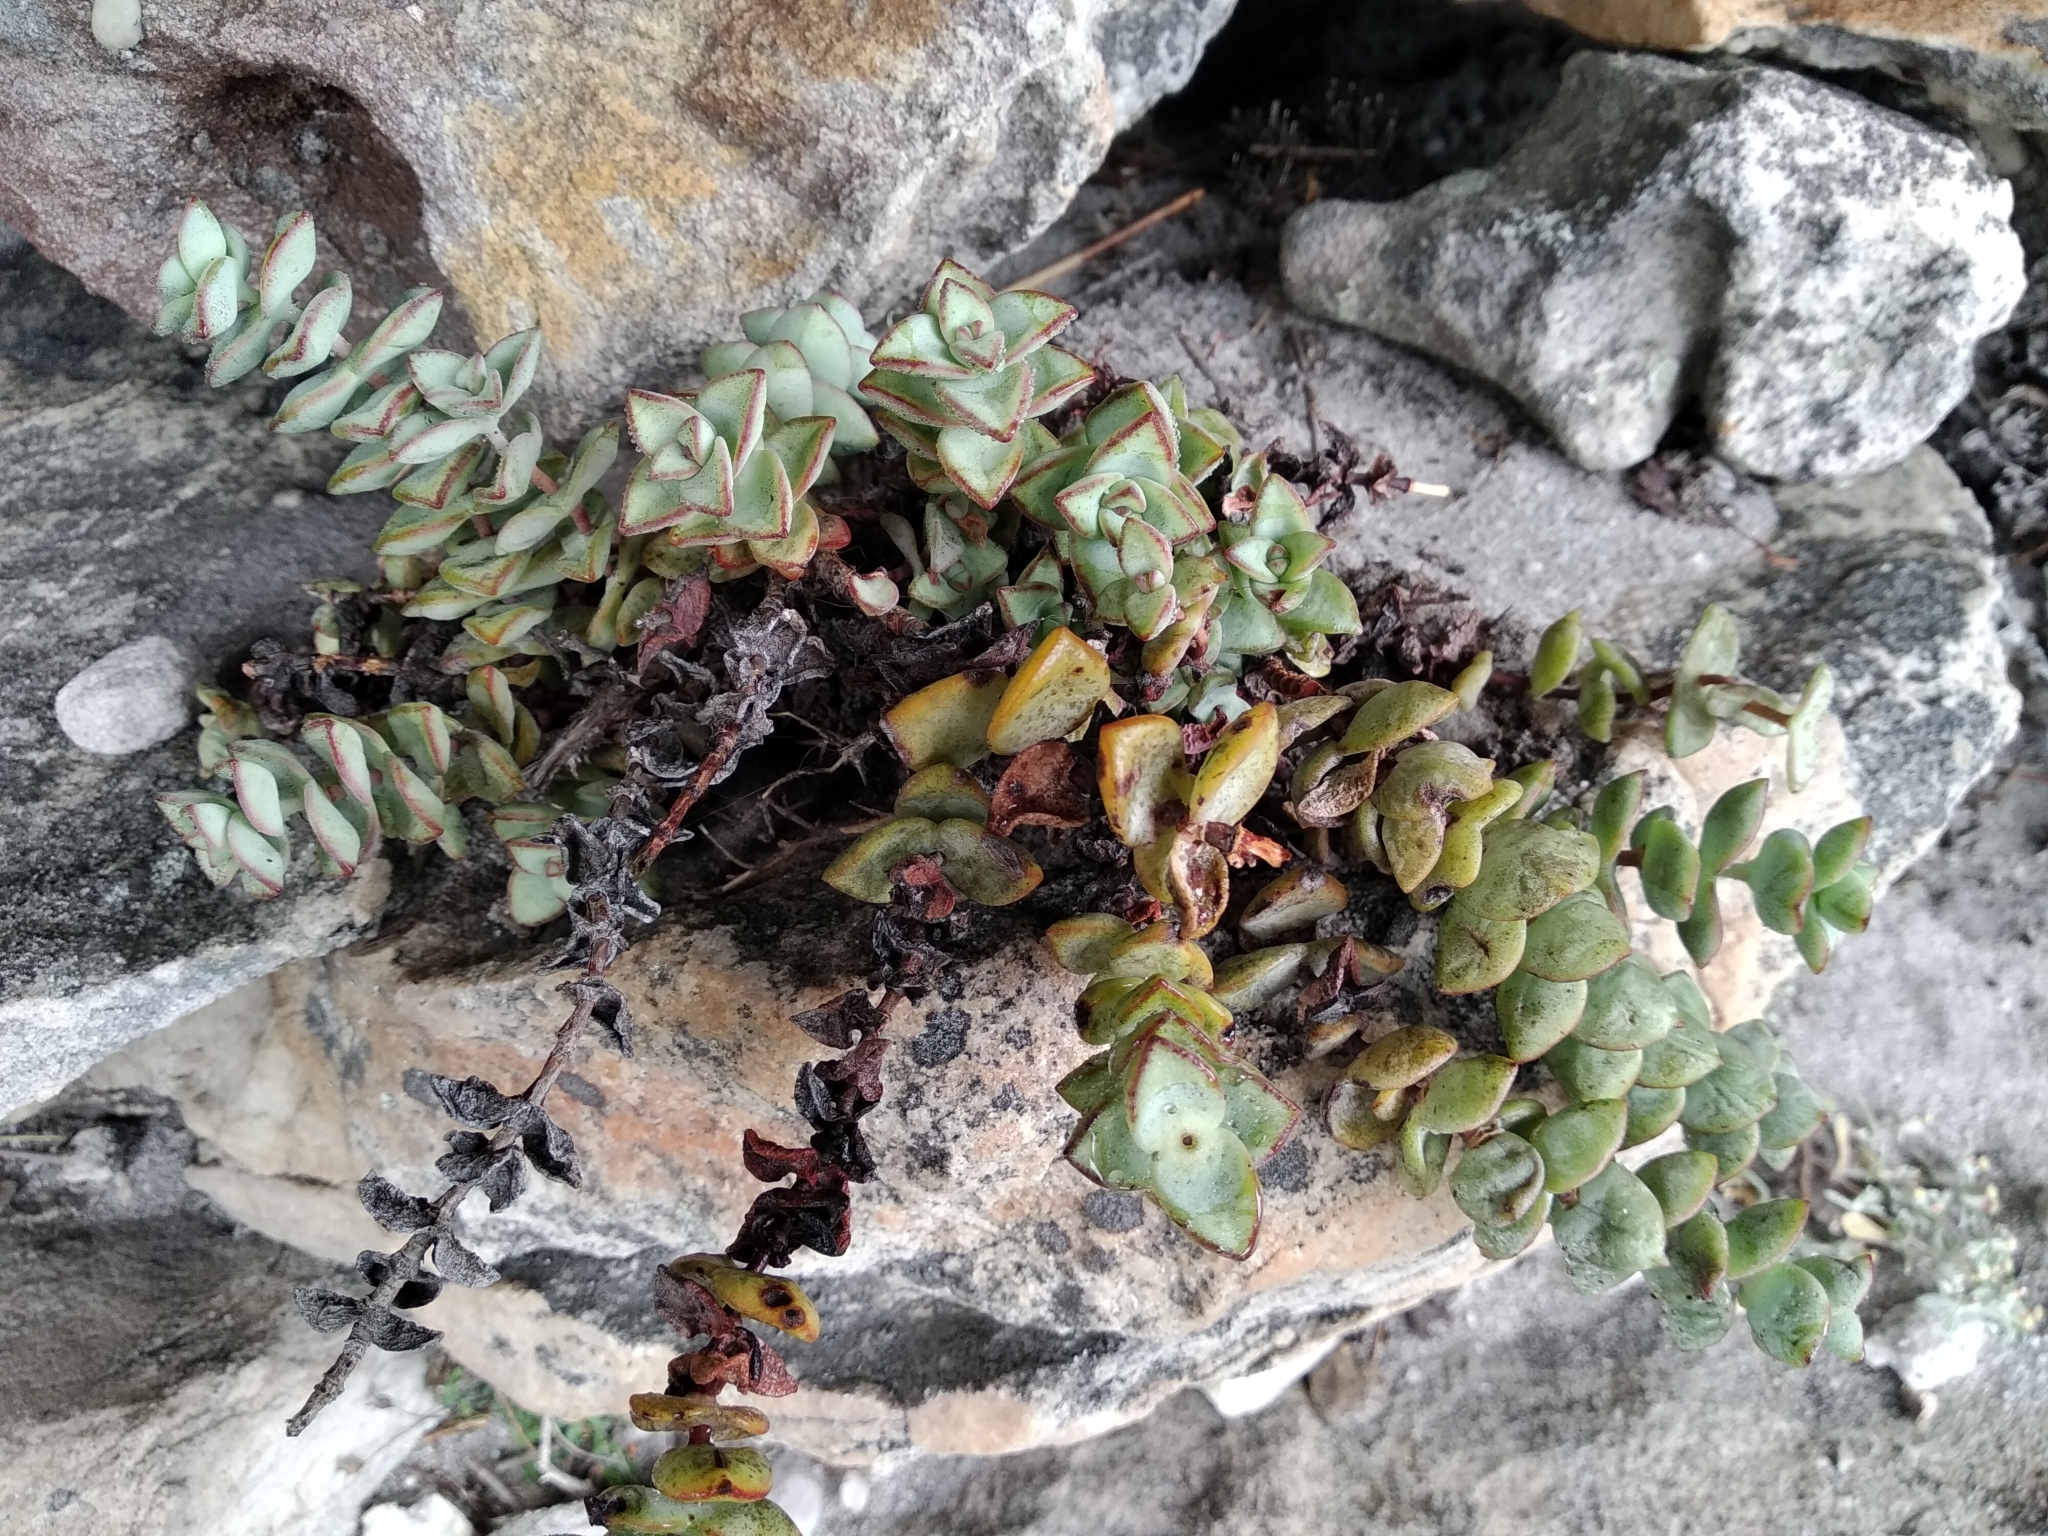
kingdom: Plantae
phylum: Tracheophyta
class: Magnoliopsida
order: Saxifragales
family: Crassulaceae
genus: Crassula
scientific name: Crassula rupestris
